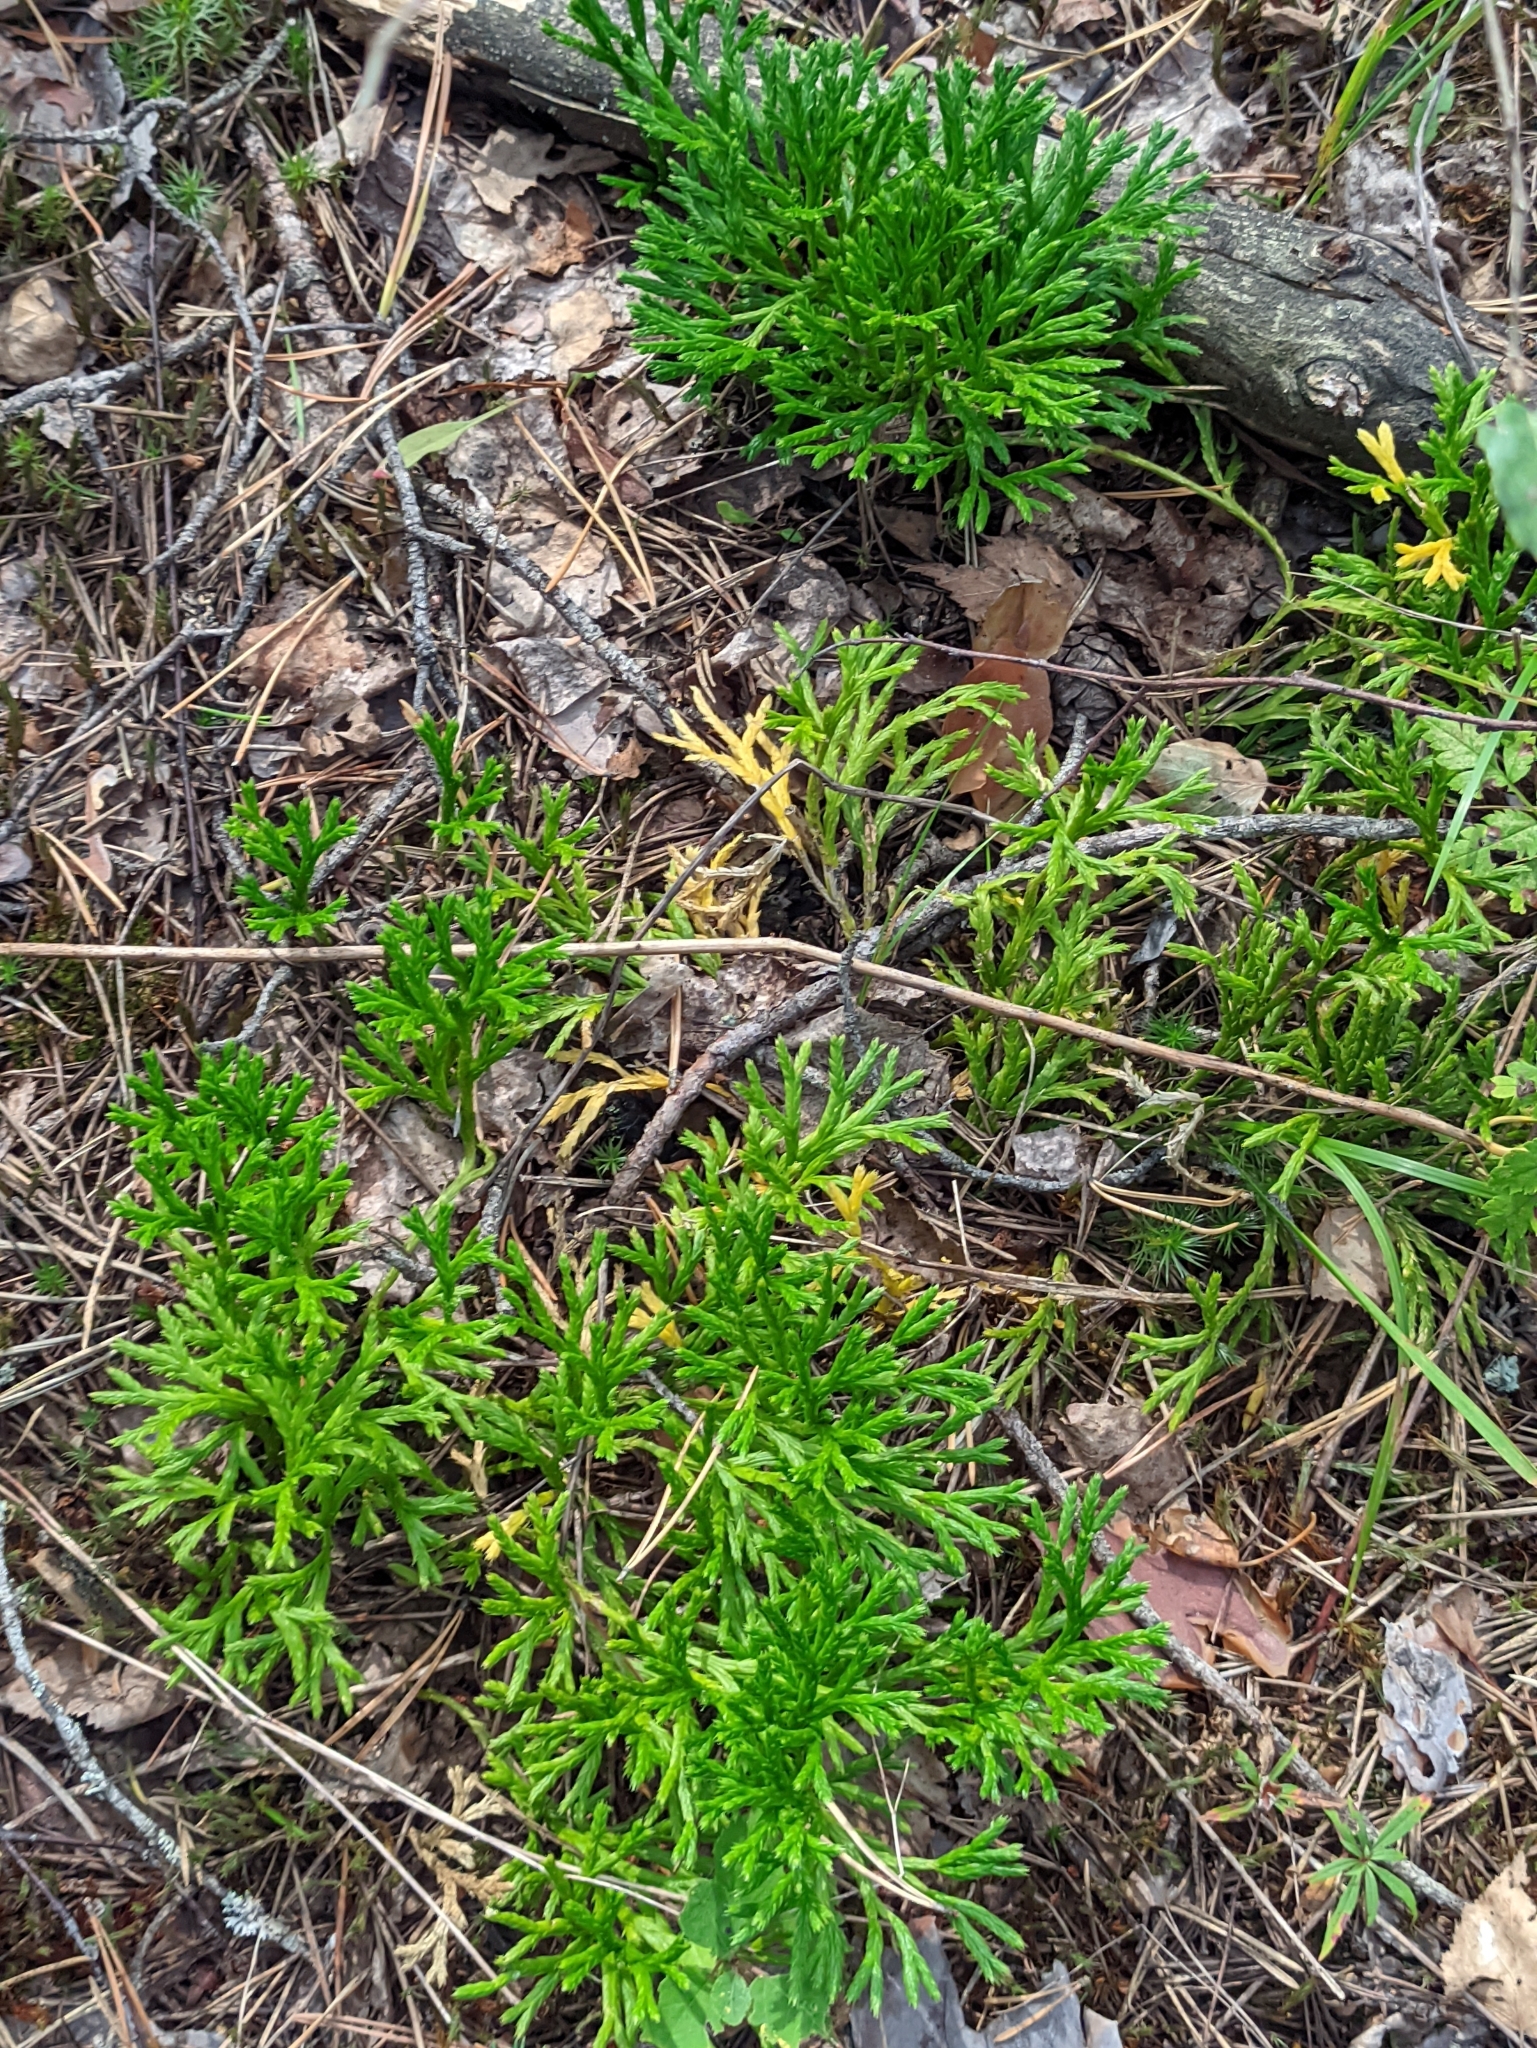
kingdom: Plantae
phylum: Tracheophyta
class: Lycopodiopsida
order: Lycopodiales
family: Lycopodiaceae
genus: Diphasiastrum
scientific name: Diphasiastrum complanatum
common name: Northern running-pine
